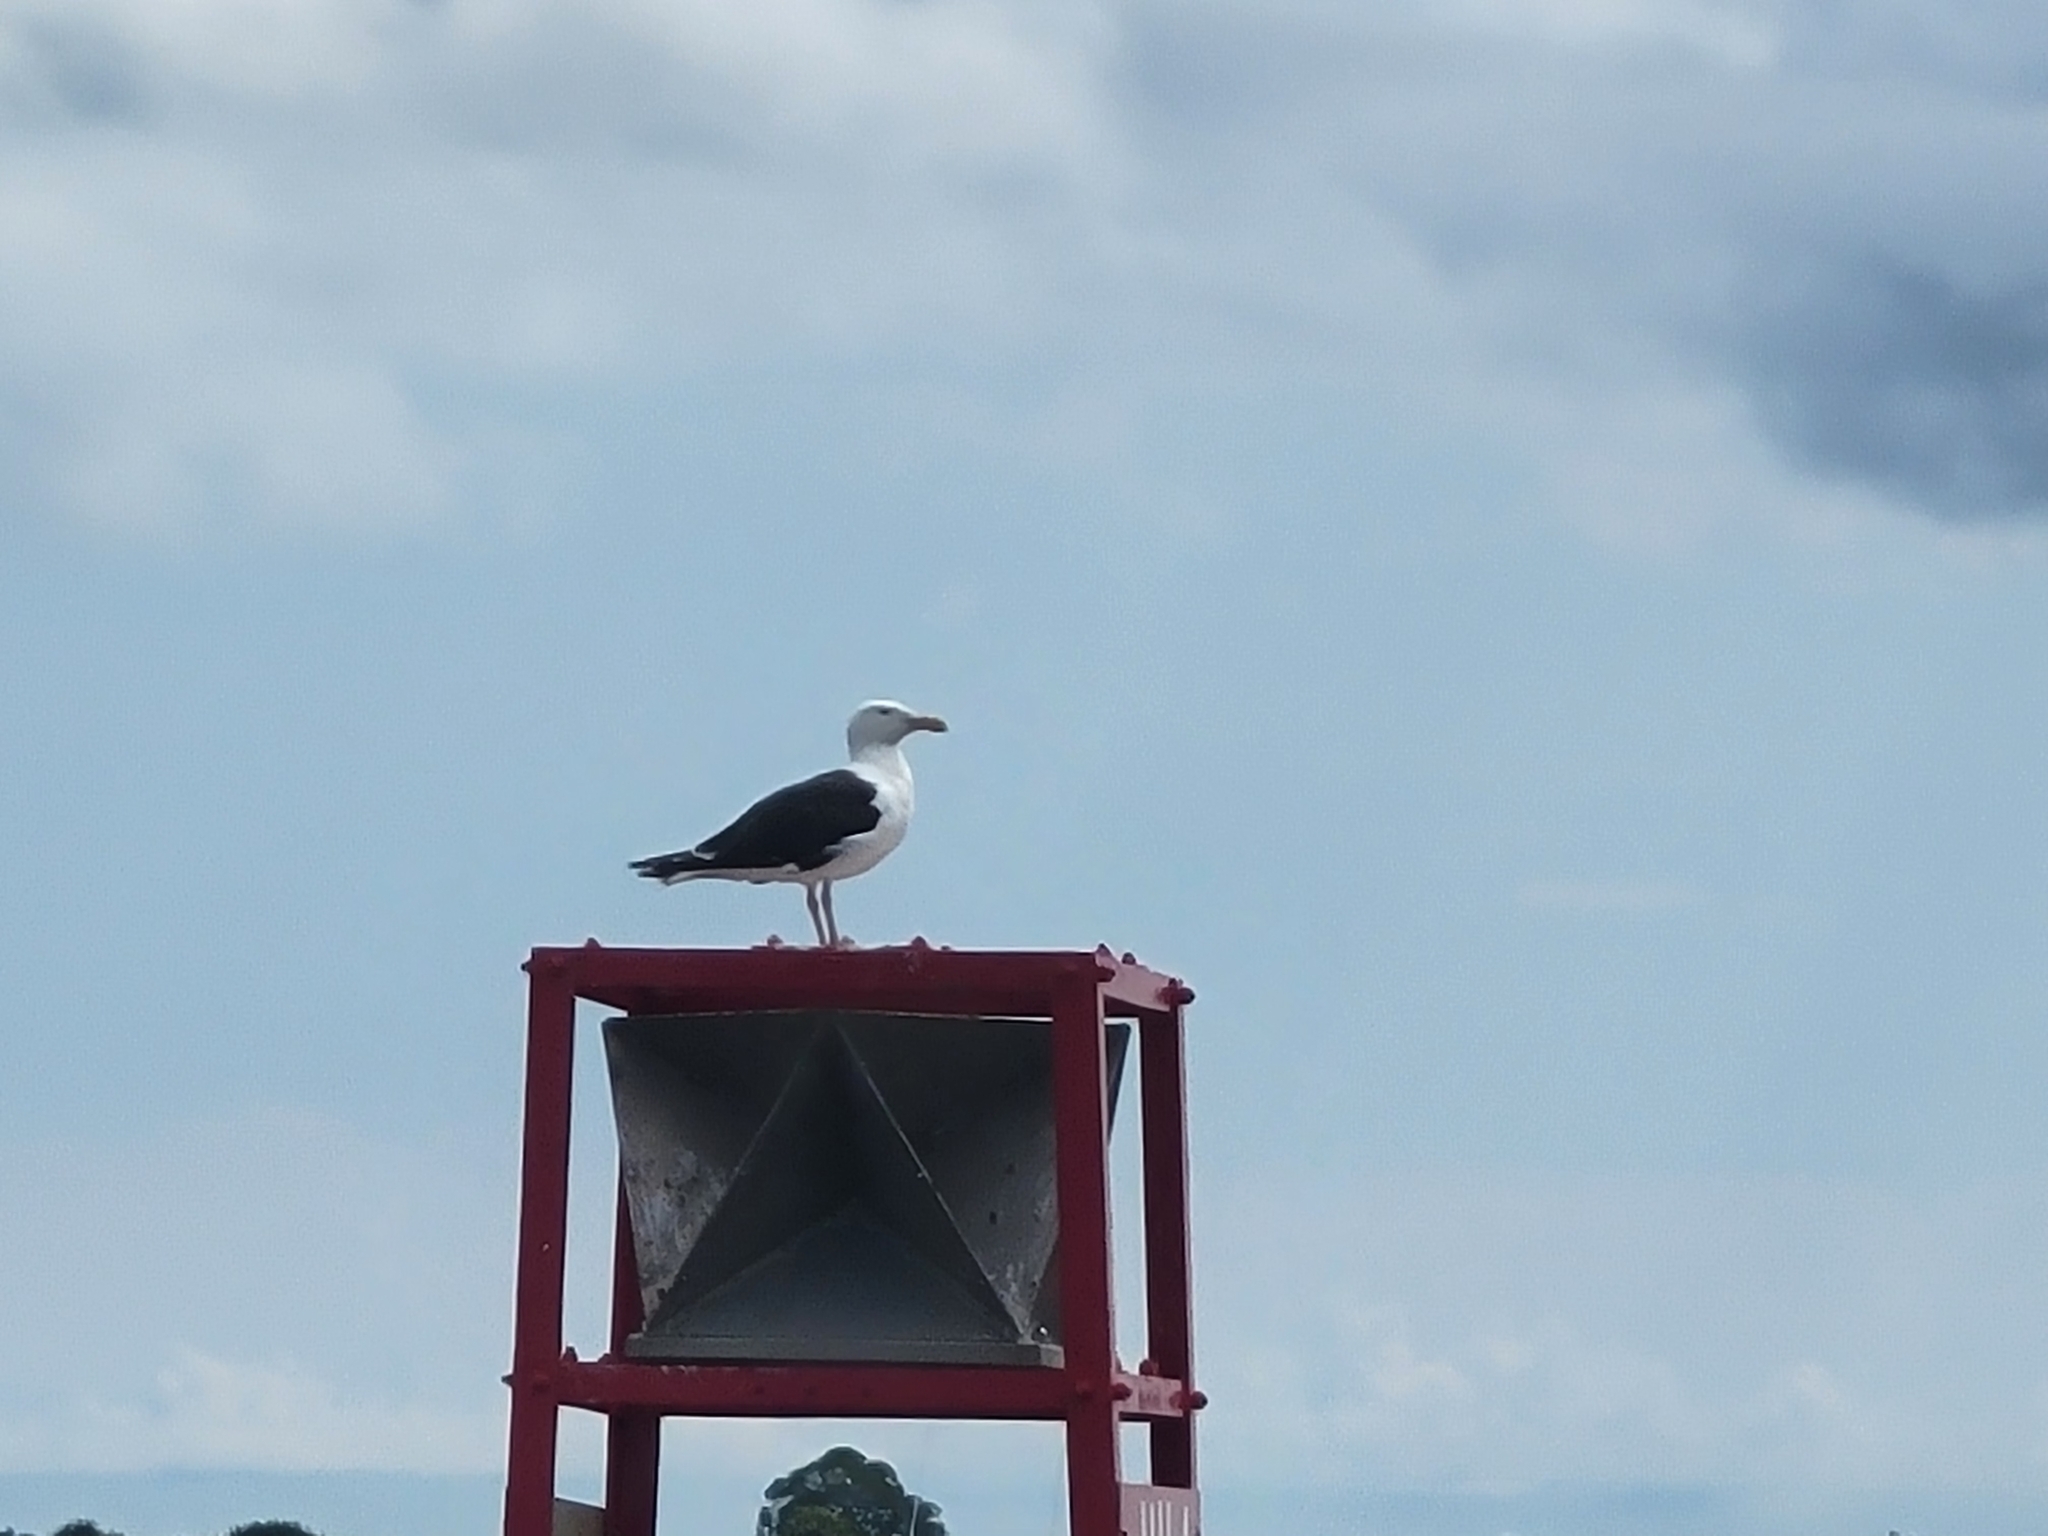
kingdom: Animalia
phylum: Chordata
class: Aves
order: Charadriiformes
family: Laridae
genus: Larus
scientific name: Larus marinus
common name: Great black-backed gull
